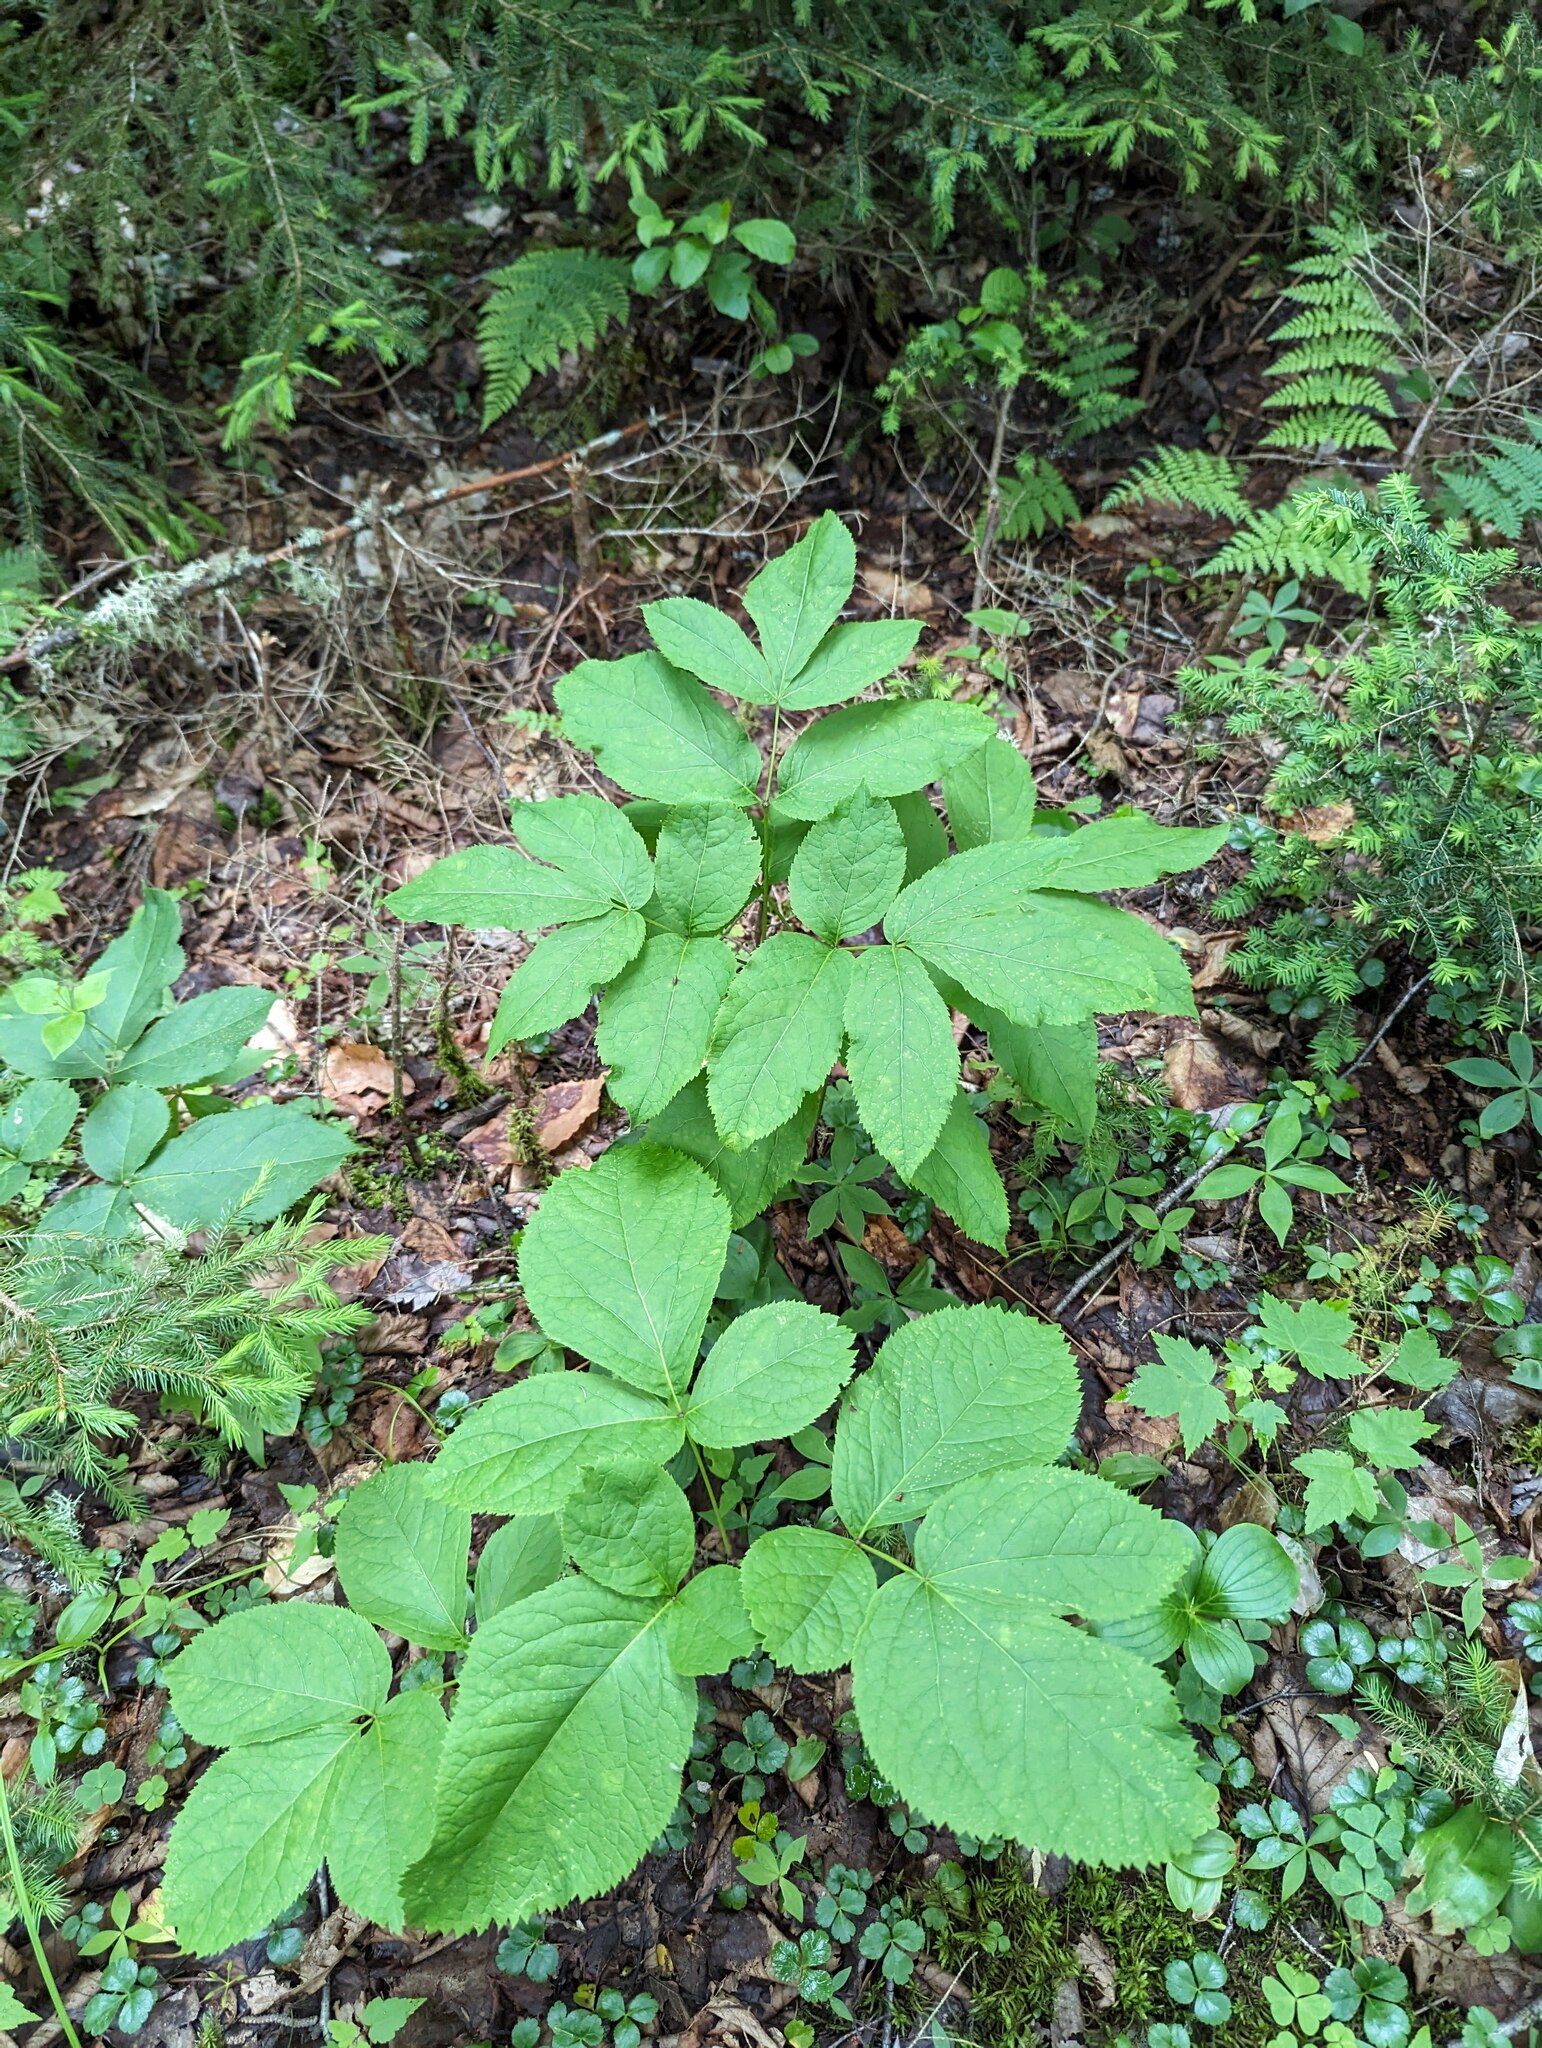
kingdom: Plantae
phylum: Tracheophyta
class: Magnoliopsida
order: Apiales
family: Araliaceae
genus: Aralia
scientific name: Aralia nudicaulis
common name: Wild sarsaparilla
